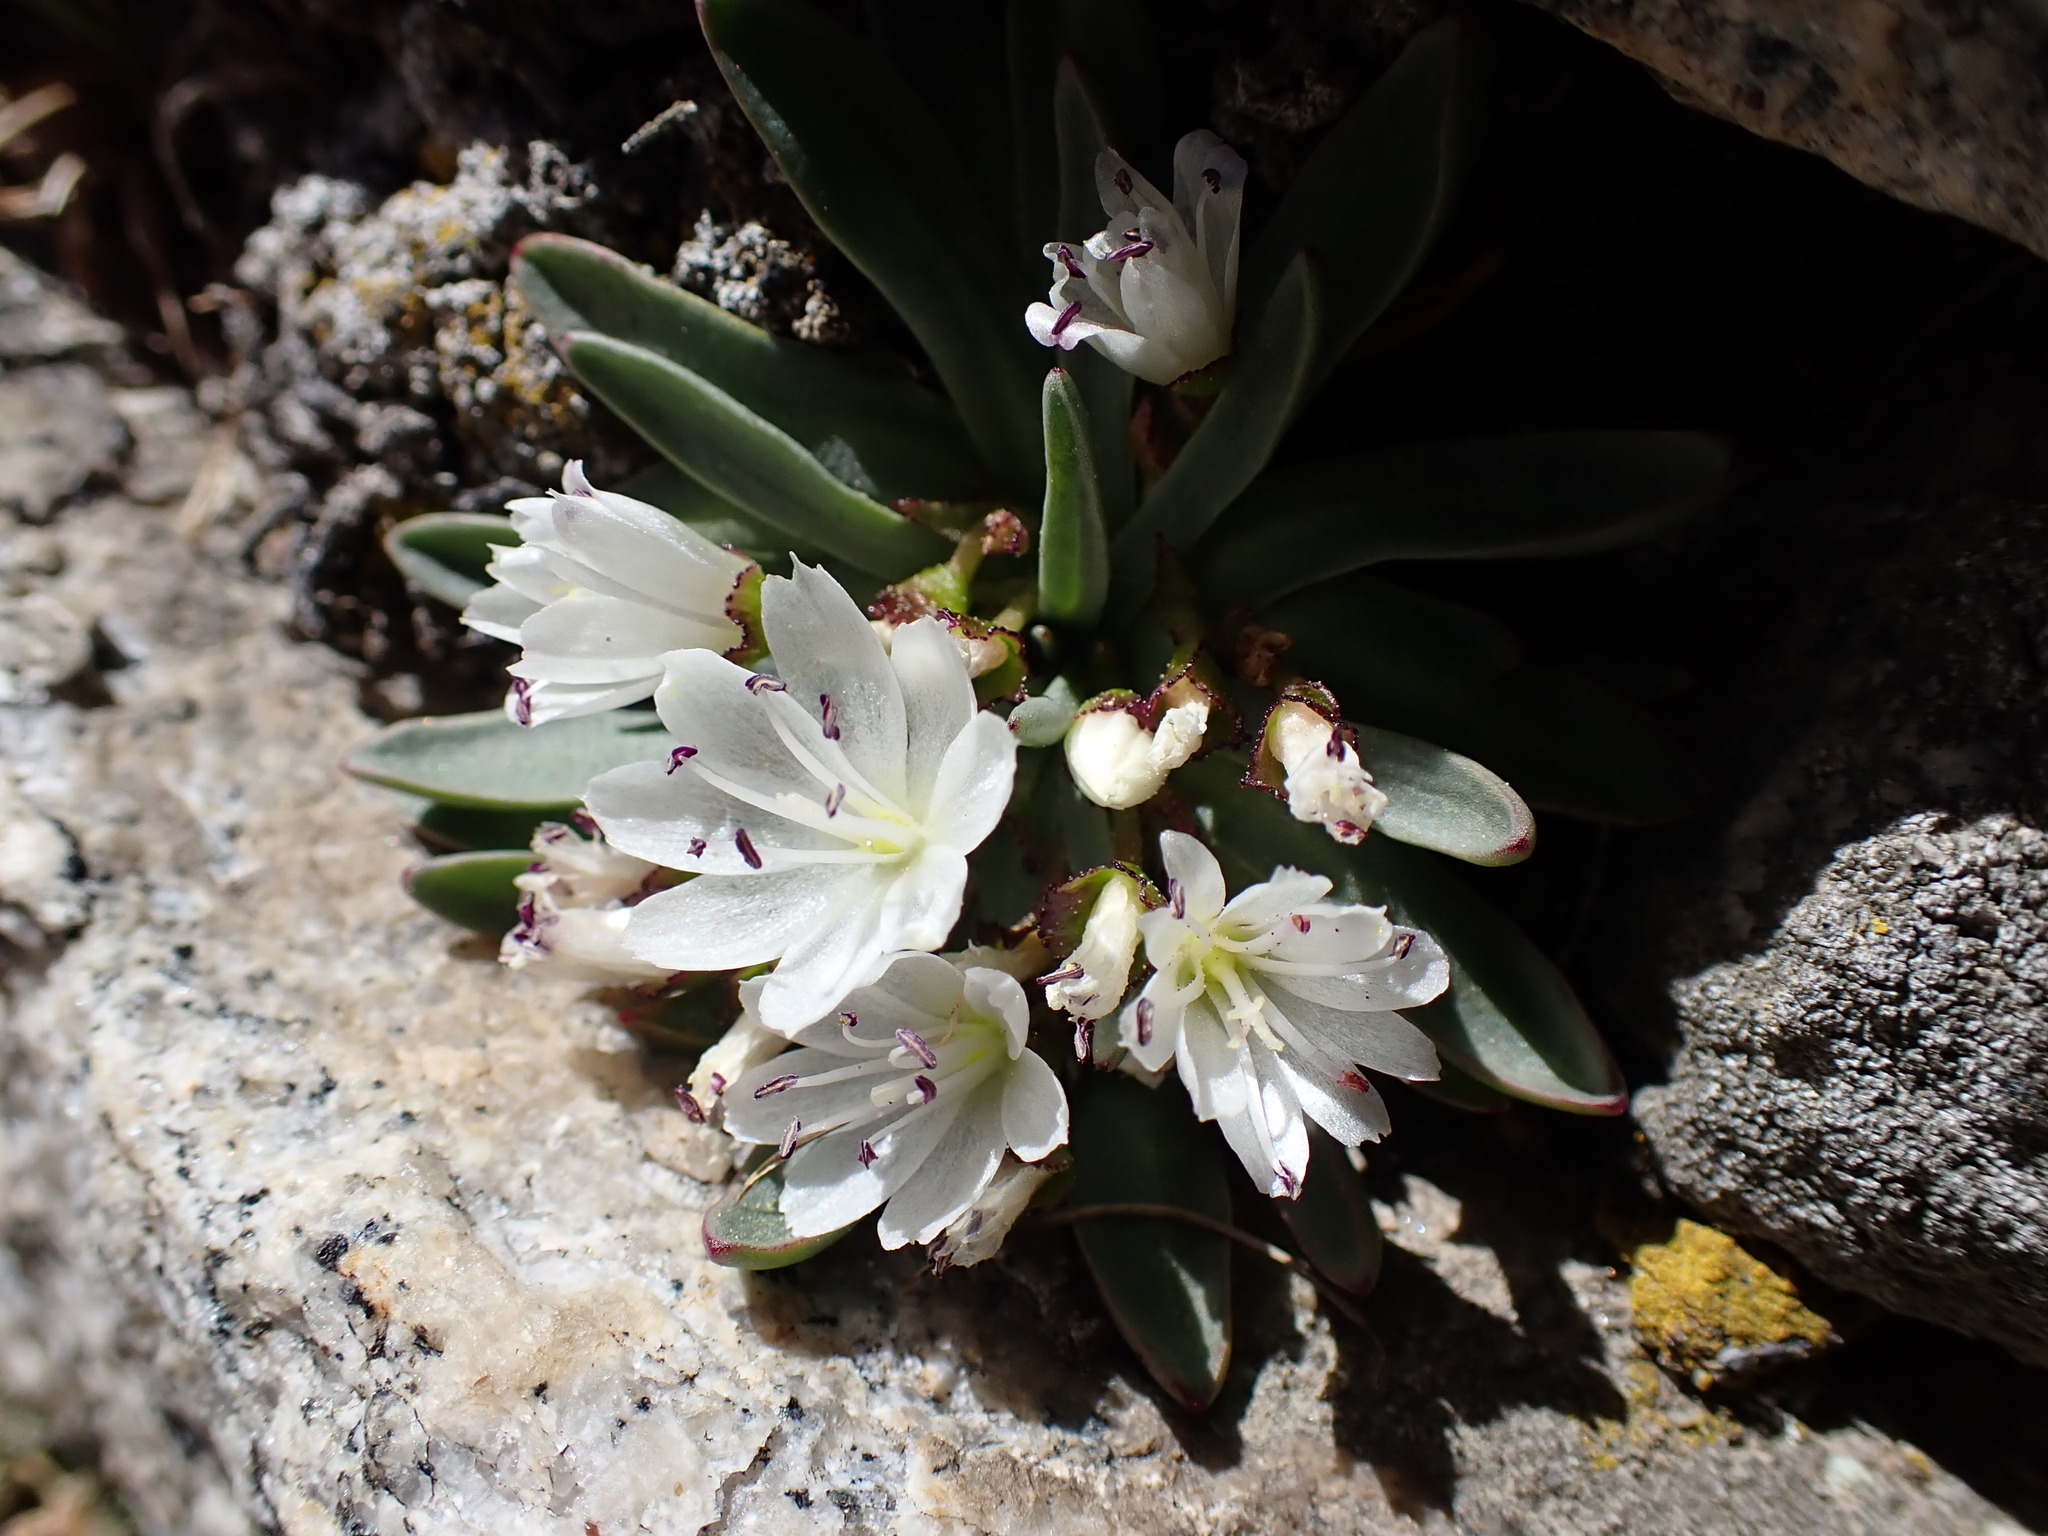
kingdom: Plantae
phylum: Tracheophyta
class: Magnoliopsida
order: Caryophyllales
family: Montiaceae
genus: Lewisia
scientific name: Lewisia glandulosa
